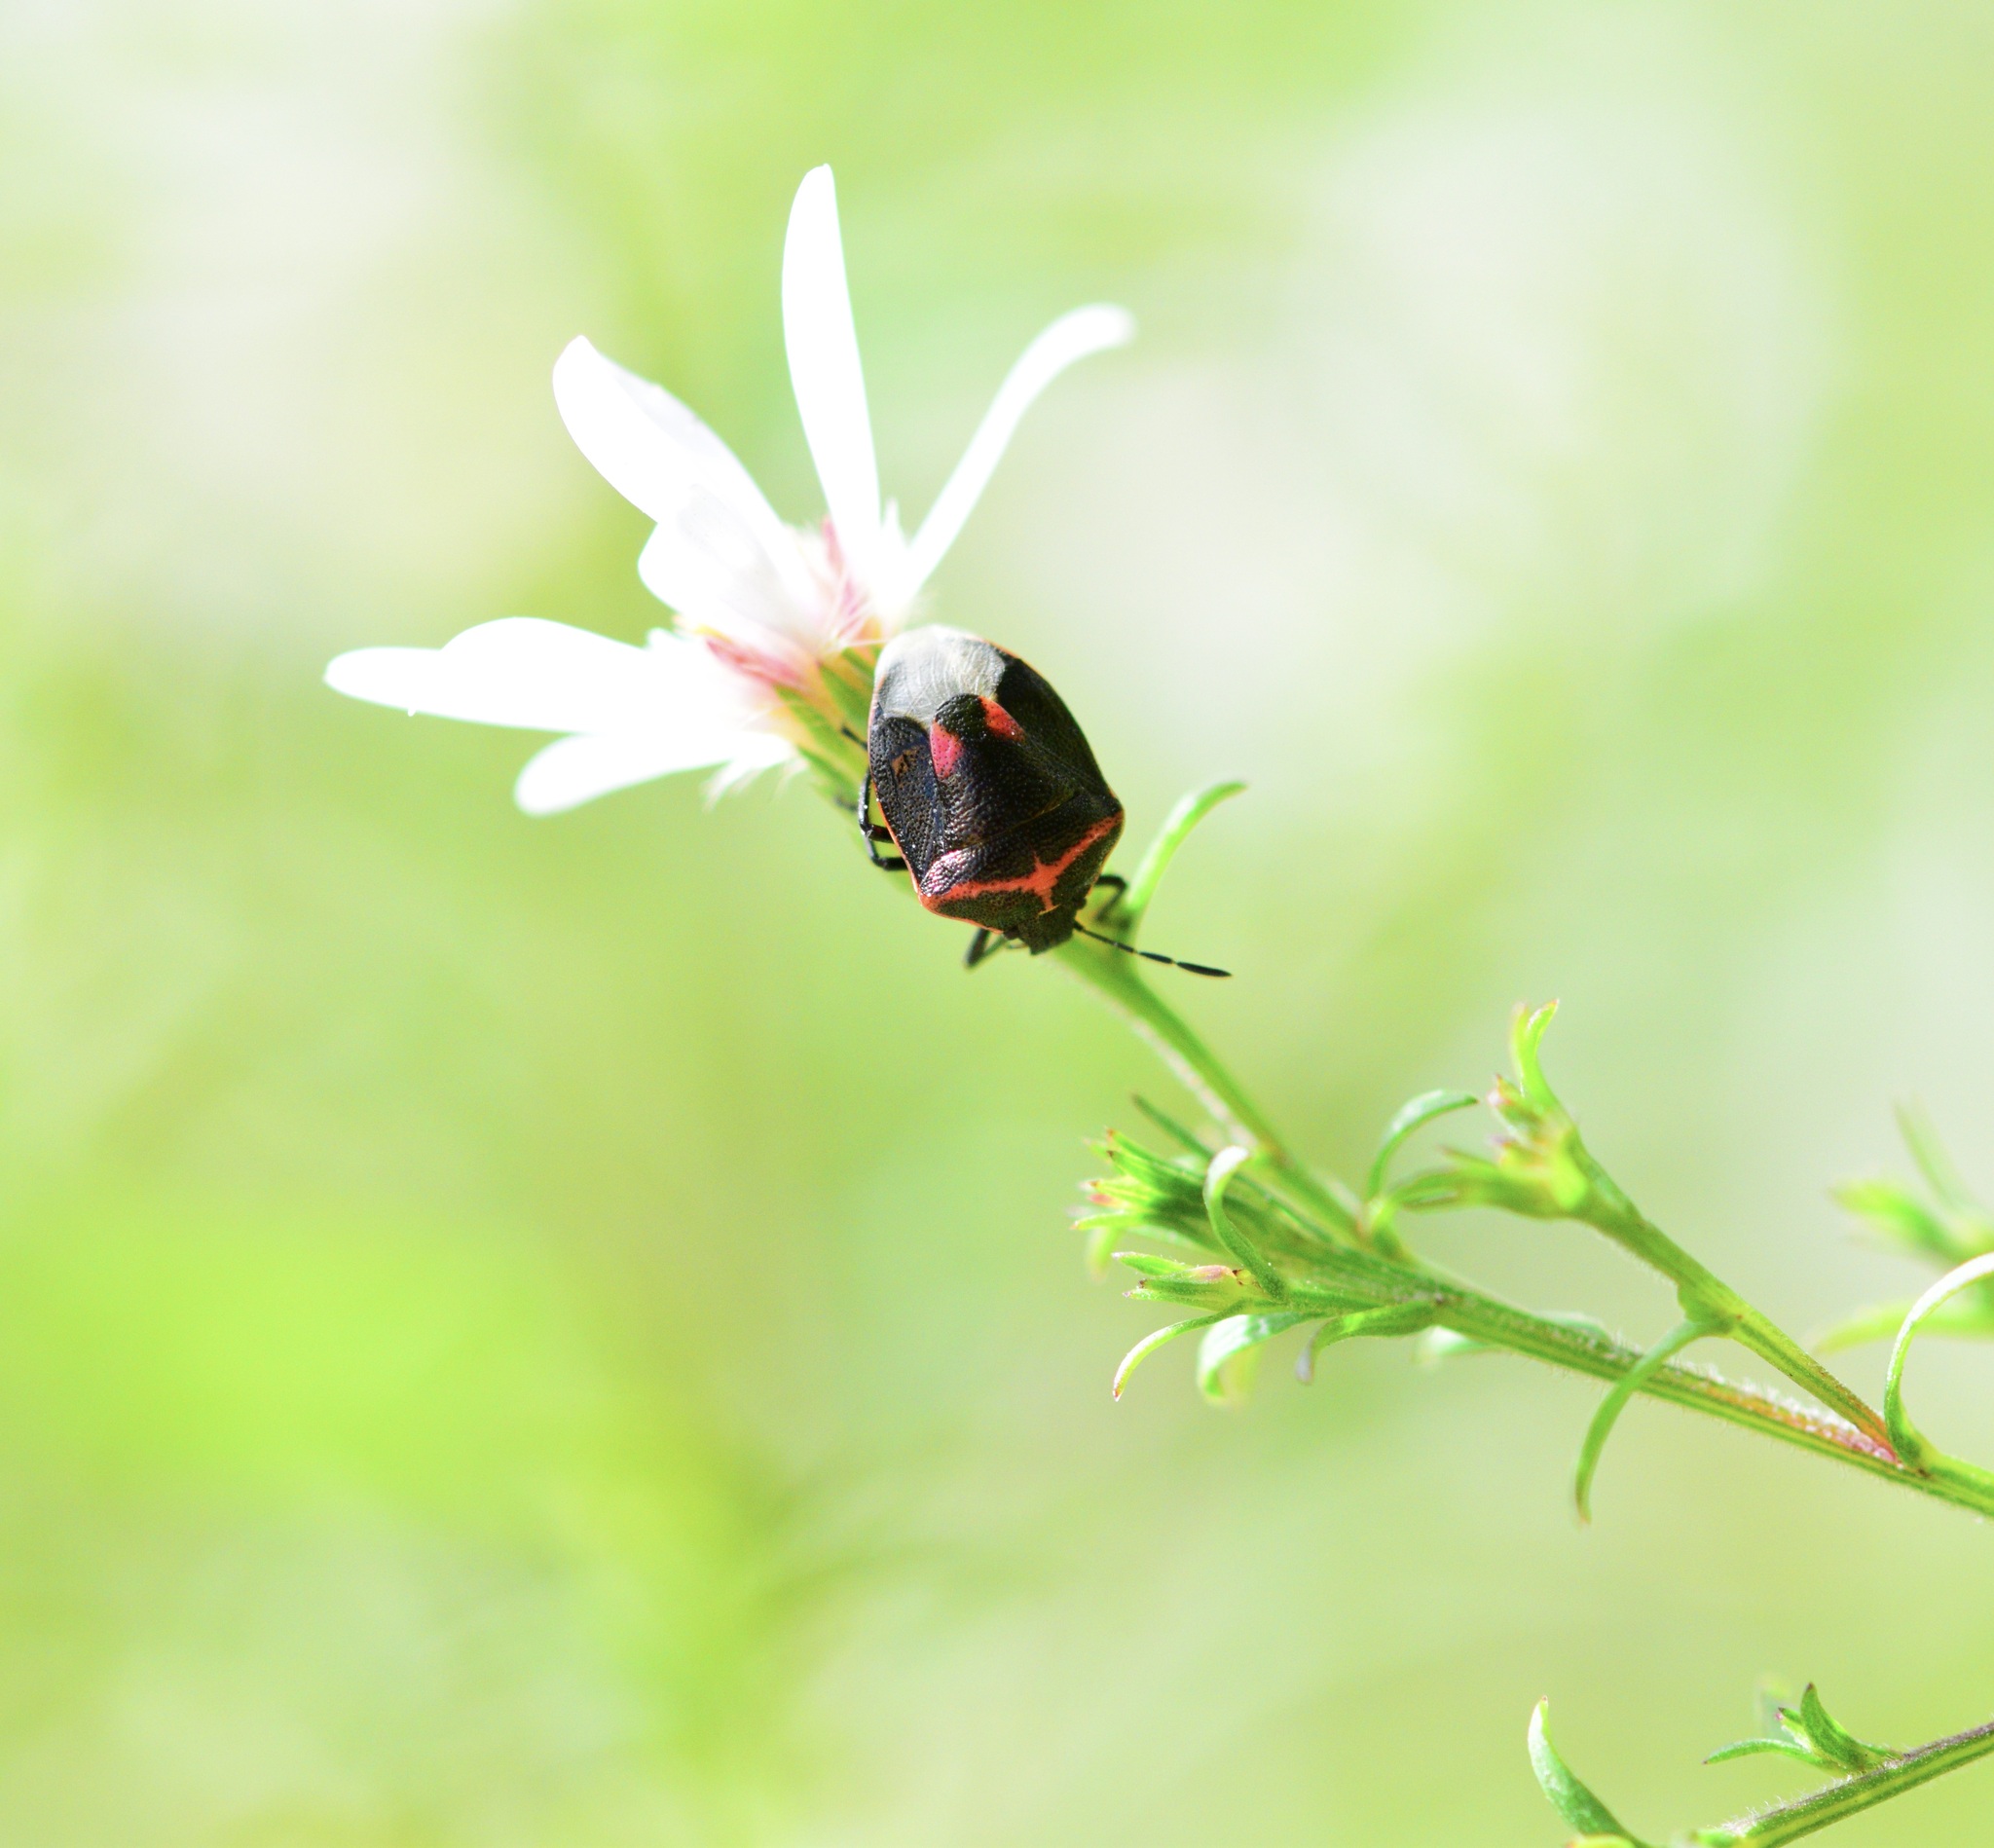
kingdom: Animalia
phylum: Arthropoda
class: Insecta
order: Hemiptera
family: Pentatomidae
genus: Cosmopepla
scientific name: Cosmopepla lintneriana
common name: Twice-stabbed stink bug
